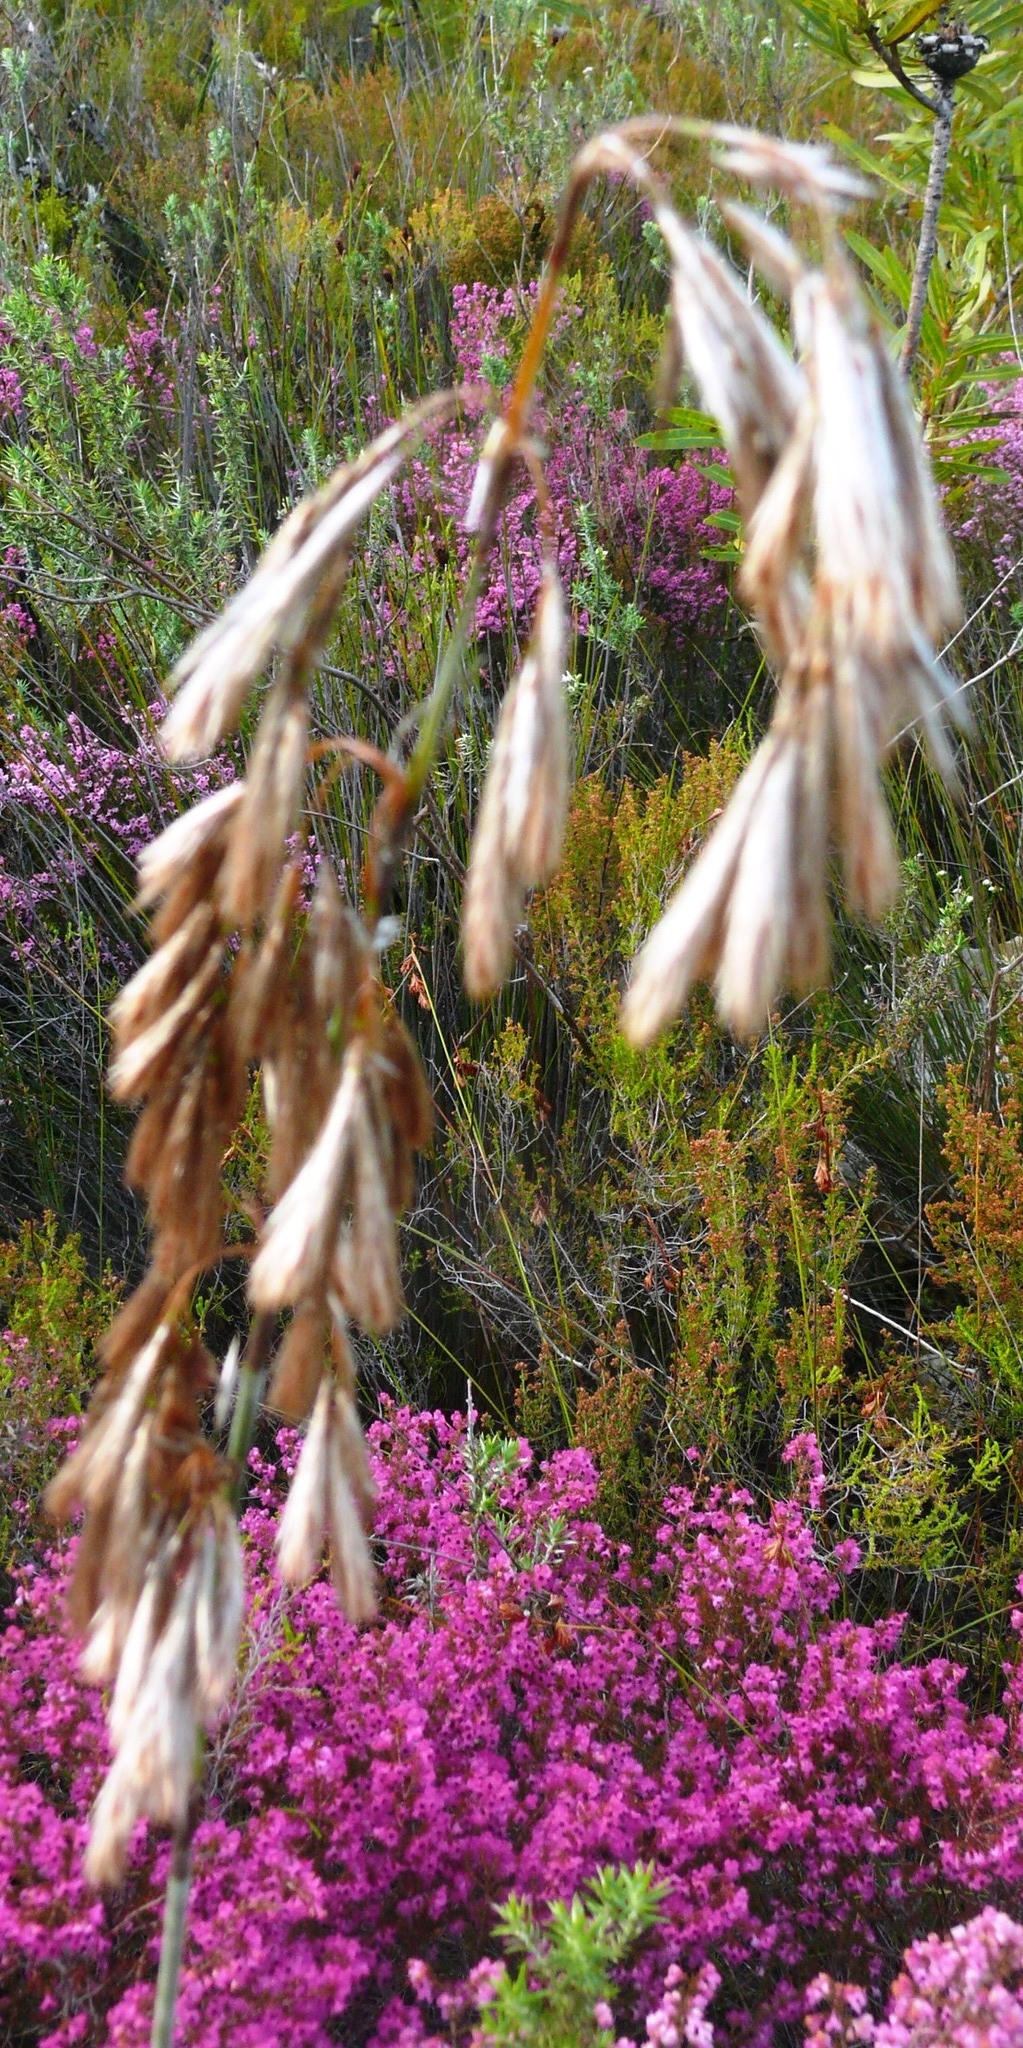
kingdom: Plantae
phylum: Tracheophyta
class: Liliopsida
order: Poales
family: Restionaceae
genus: Thamnochortus
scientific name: Thamnochortus cinereus
